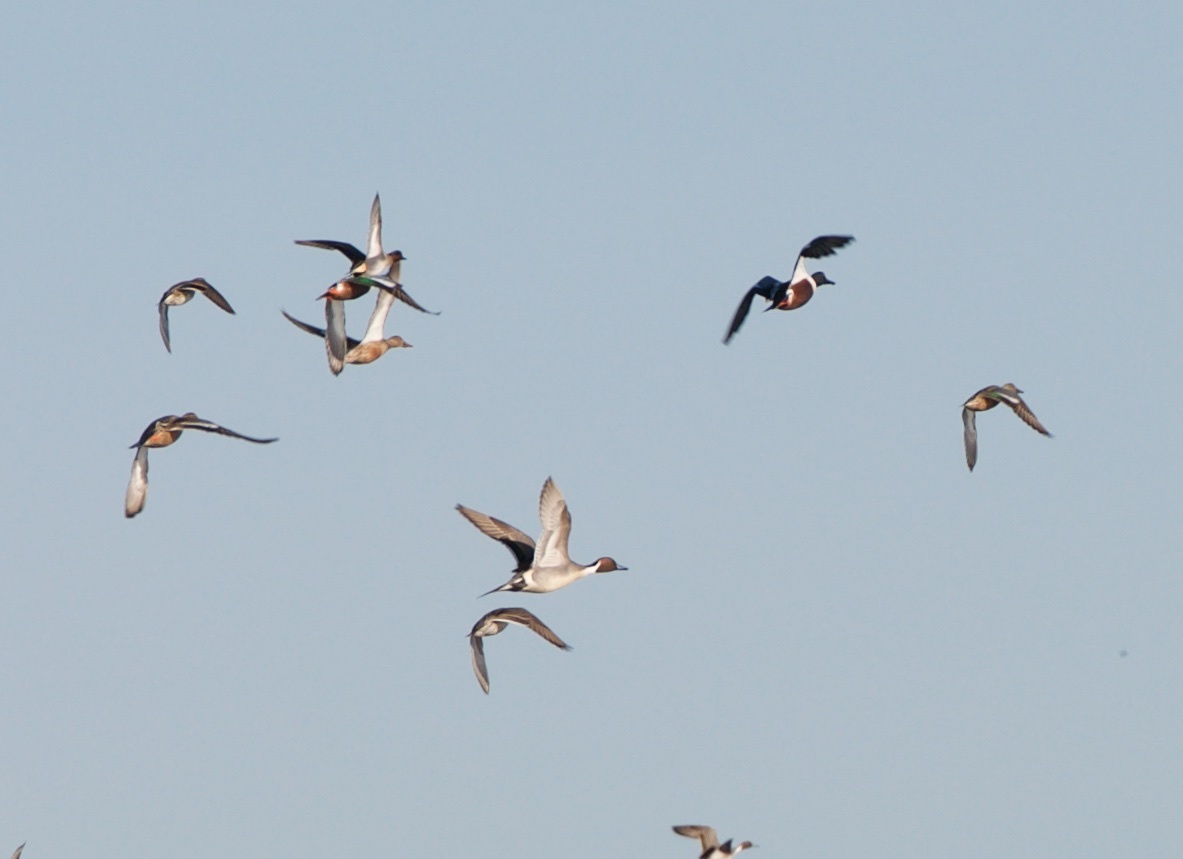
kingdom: Animalia
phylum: Chordata
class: Aves
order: Anseriformes
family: Anatidae
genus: Anas
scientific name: Anas acuta
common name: Northern pintail
